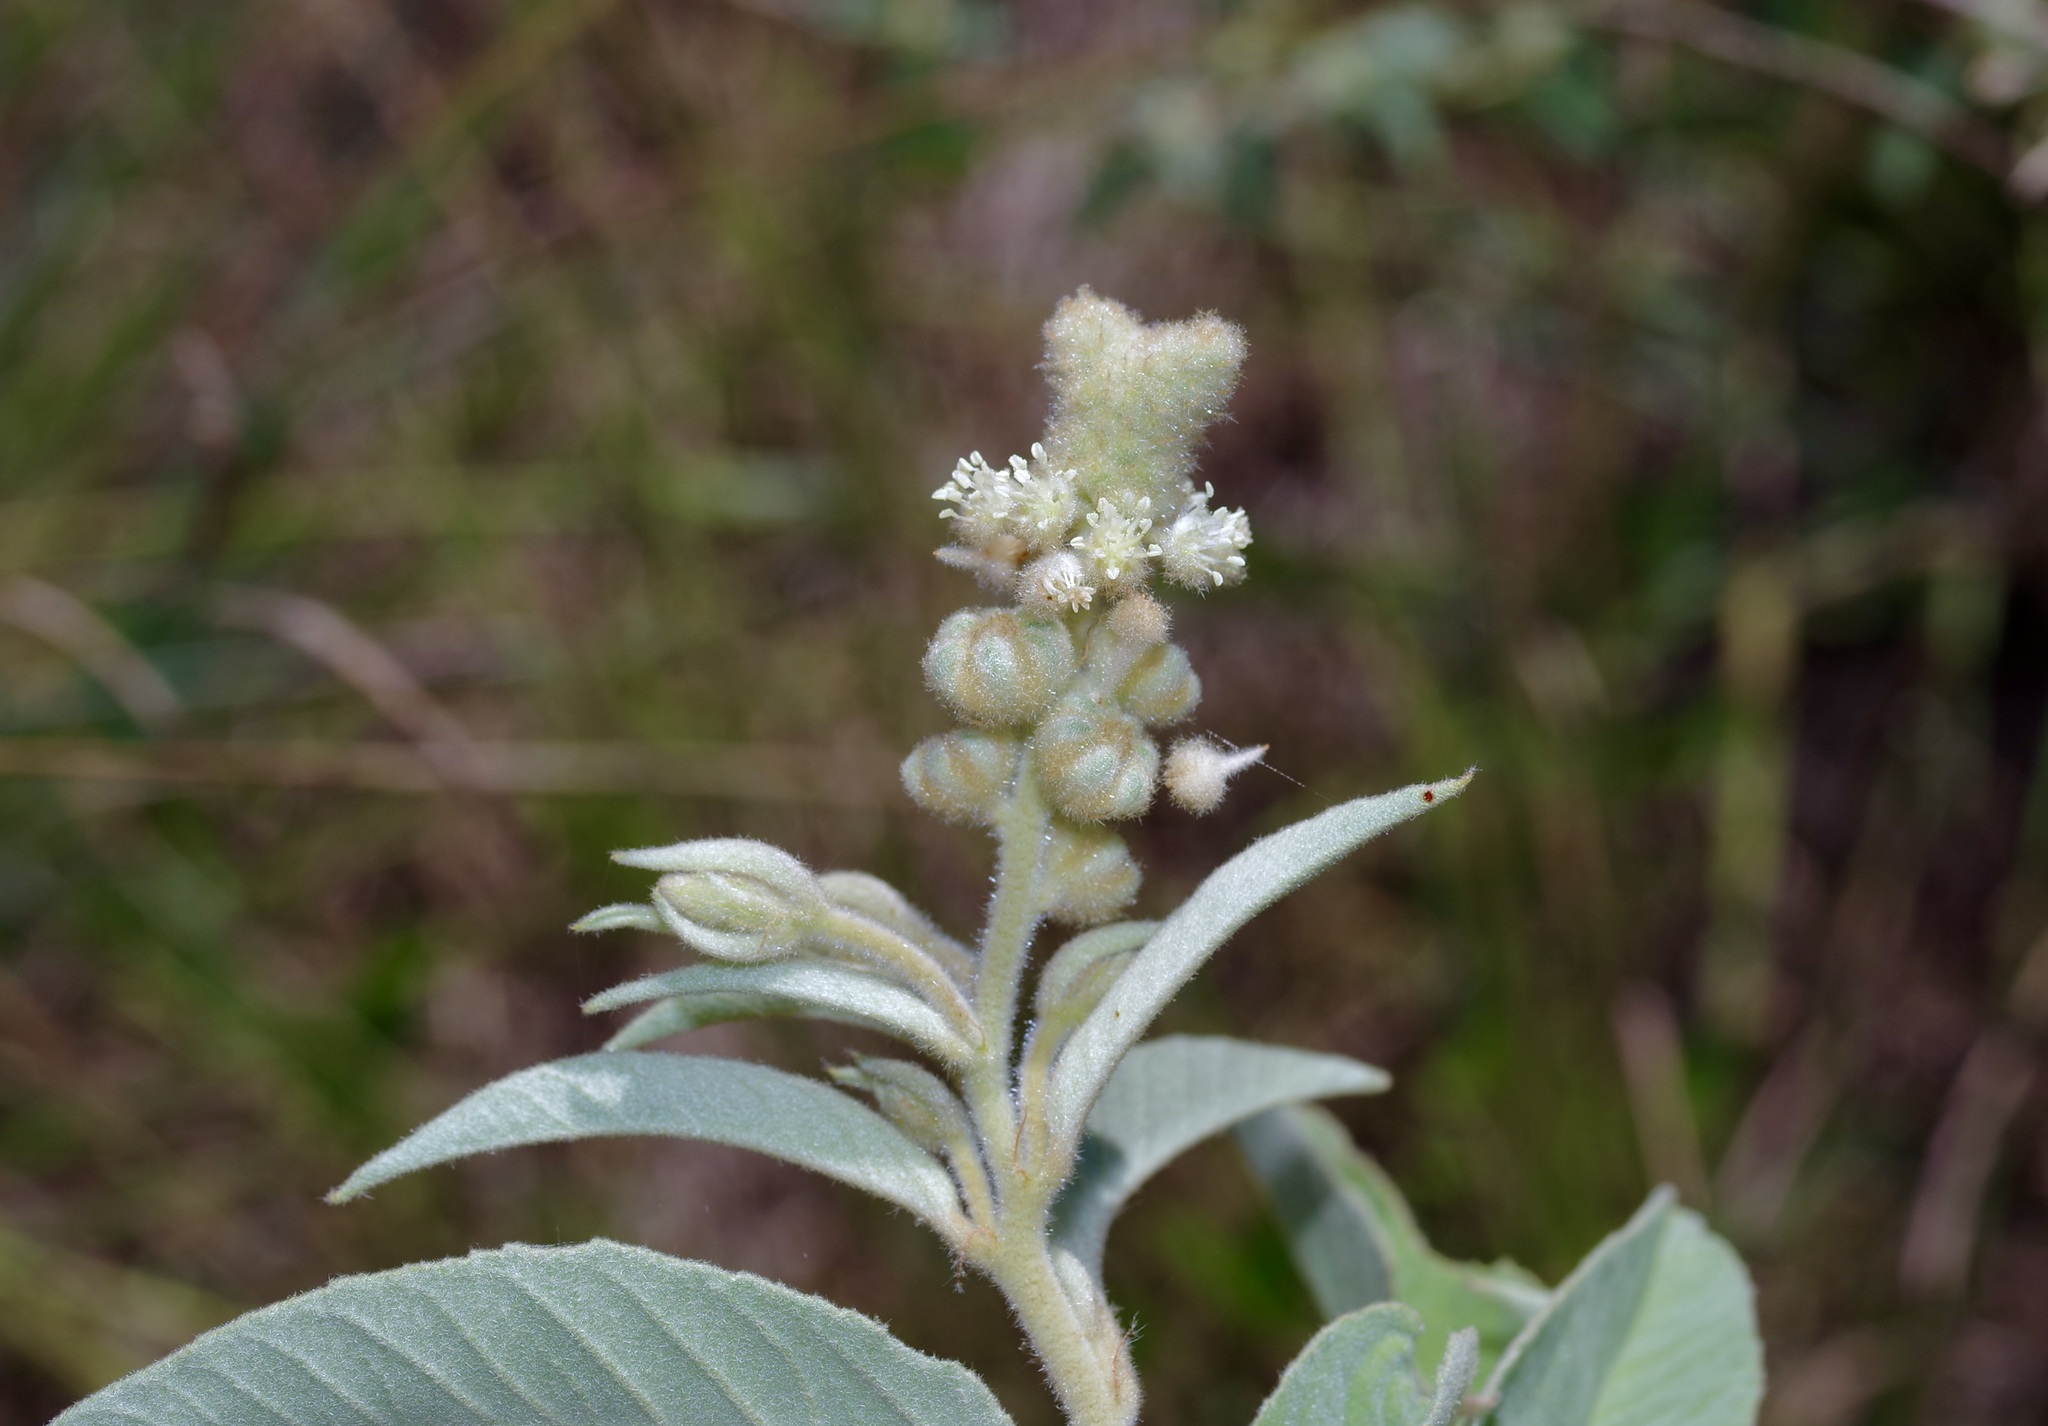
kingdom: Plantae
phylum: Tracheophyta
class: Magnoliopsida
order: Malpighiales
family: Euphorbiaceae
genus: Croton
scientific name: Croton lindheimeri
